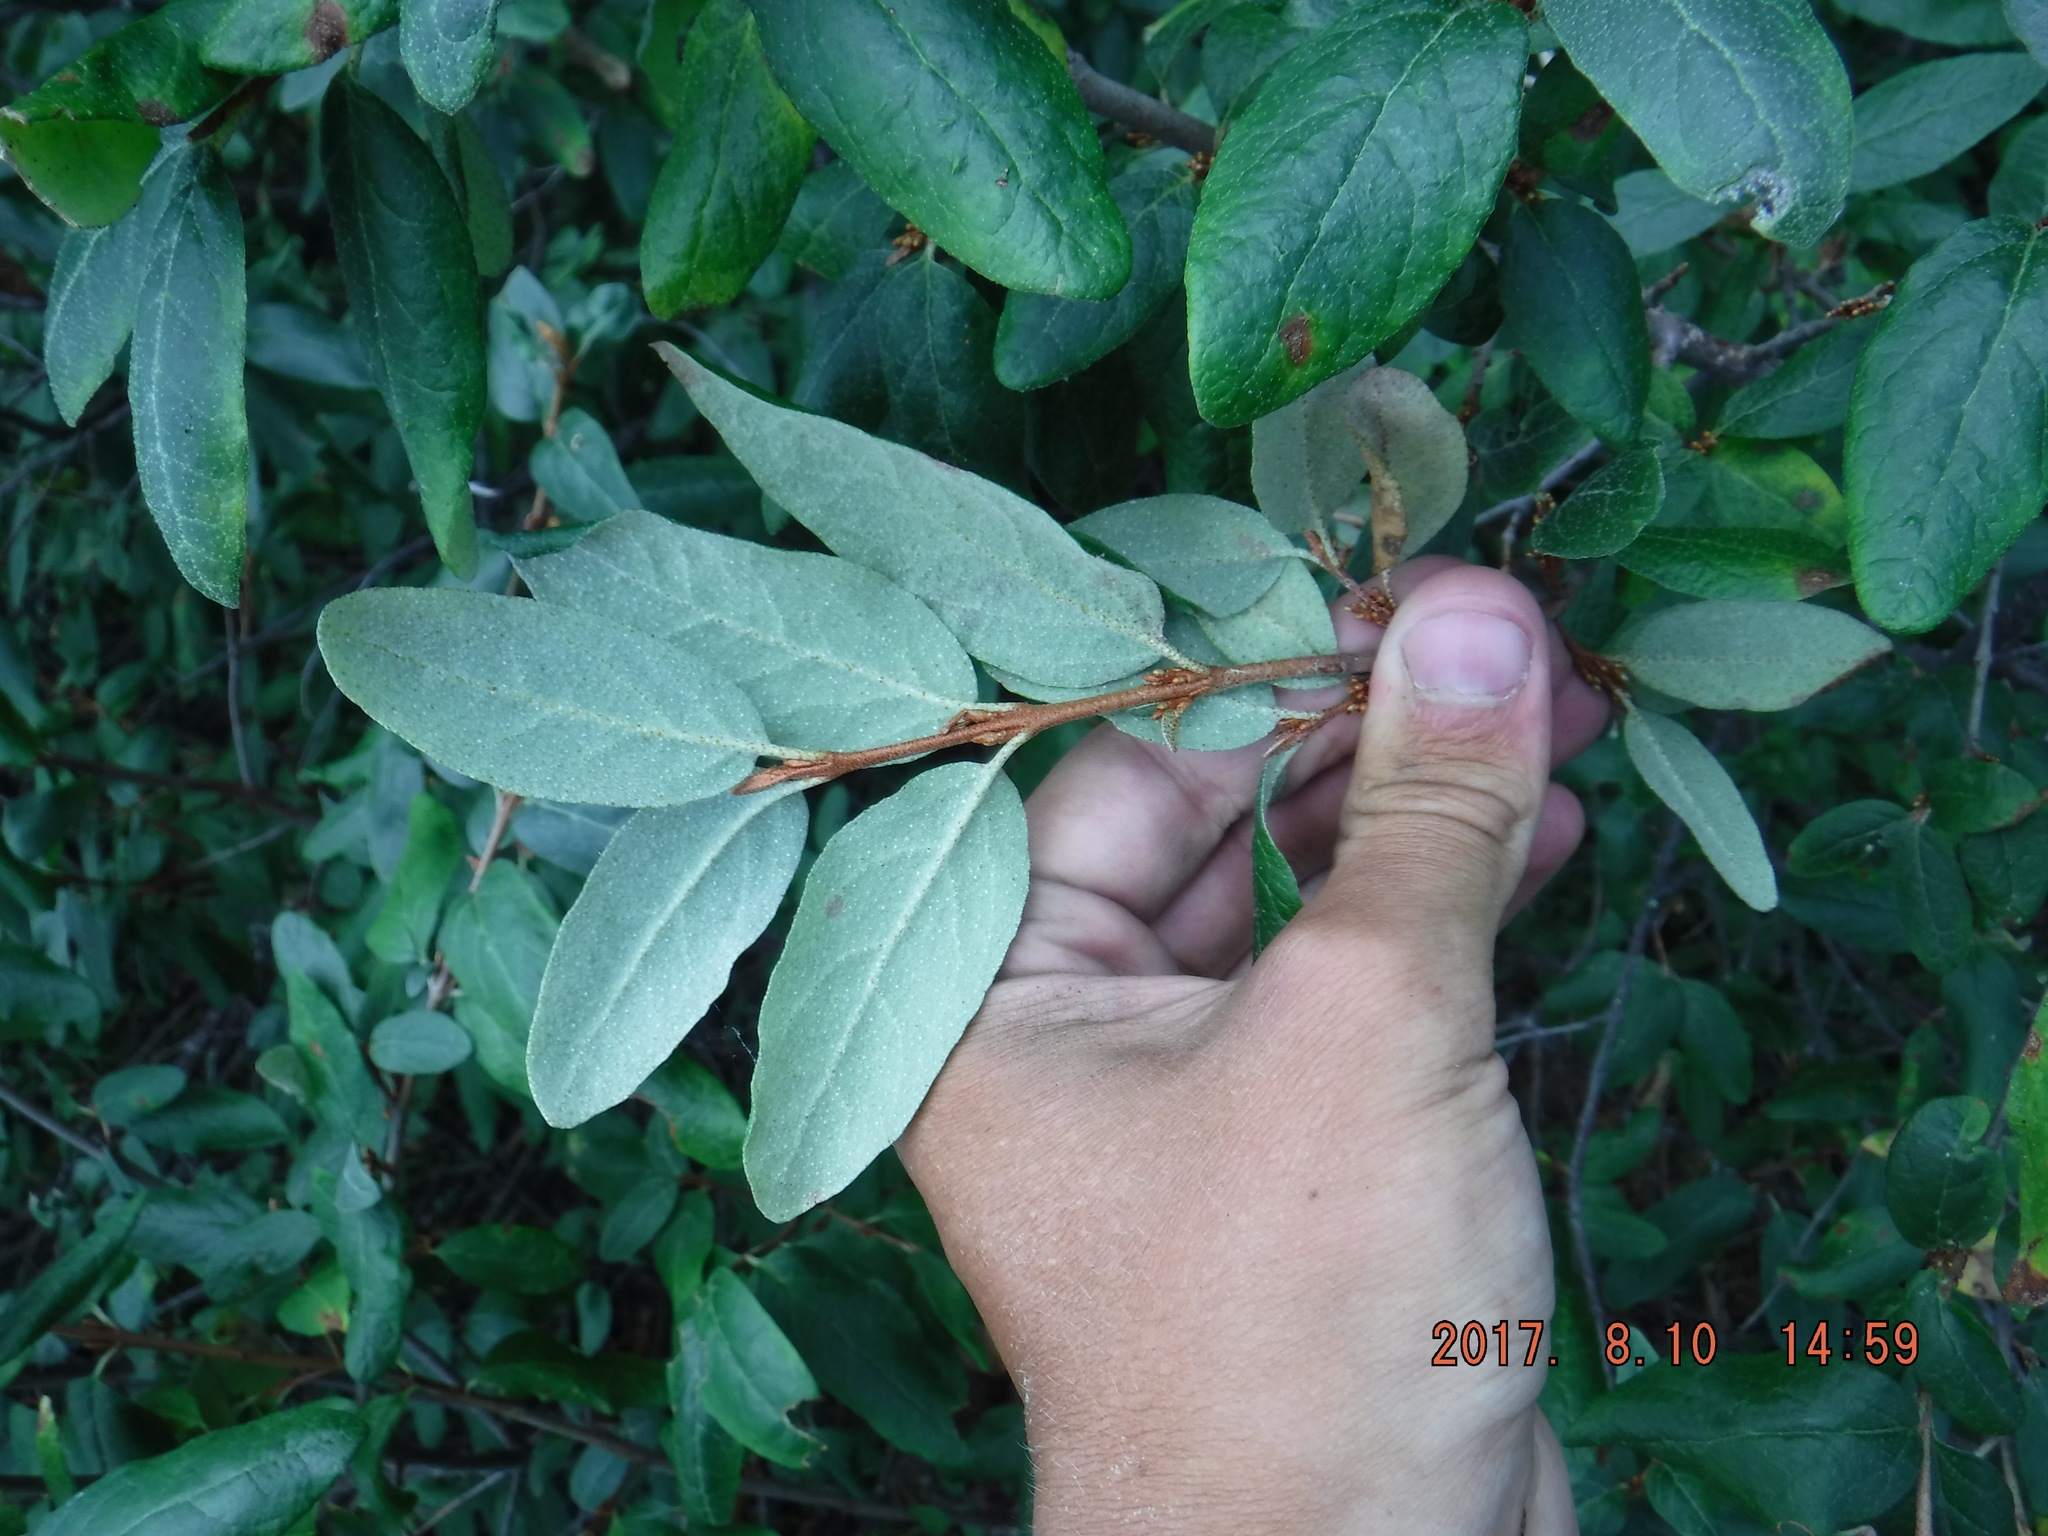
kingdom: Plantae
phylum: Tracheophyta
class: Magnoliopsida
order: Rosales
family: Elaeagnaceae
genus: Shepherdia
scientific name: Shepherdia canadensis
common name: Soapberry
